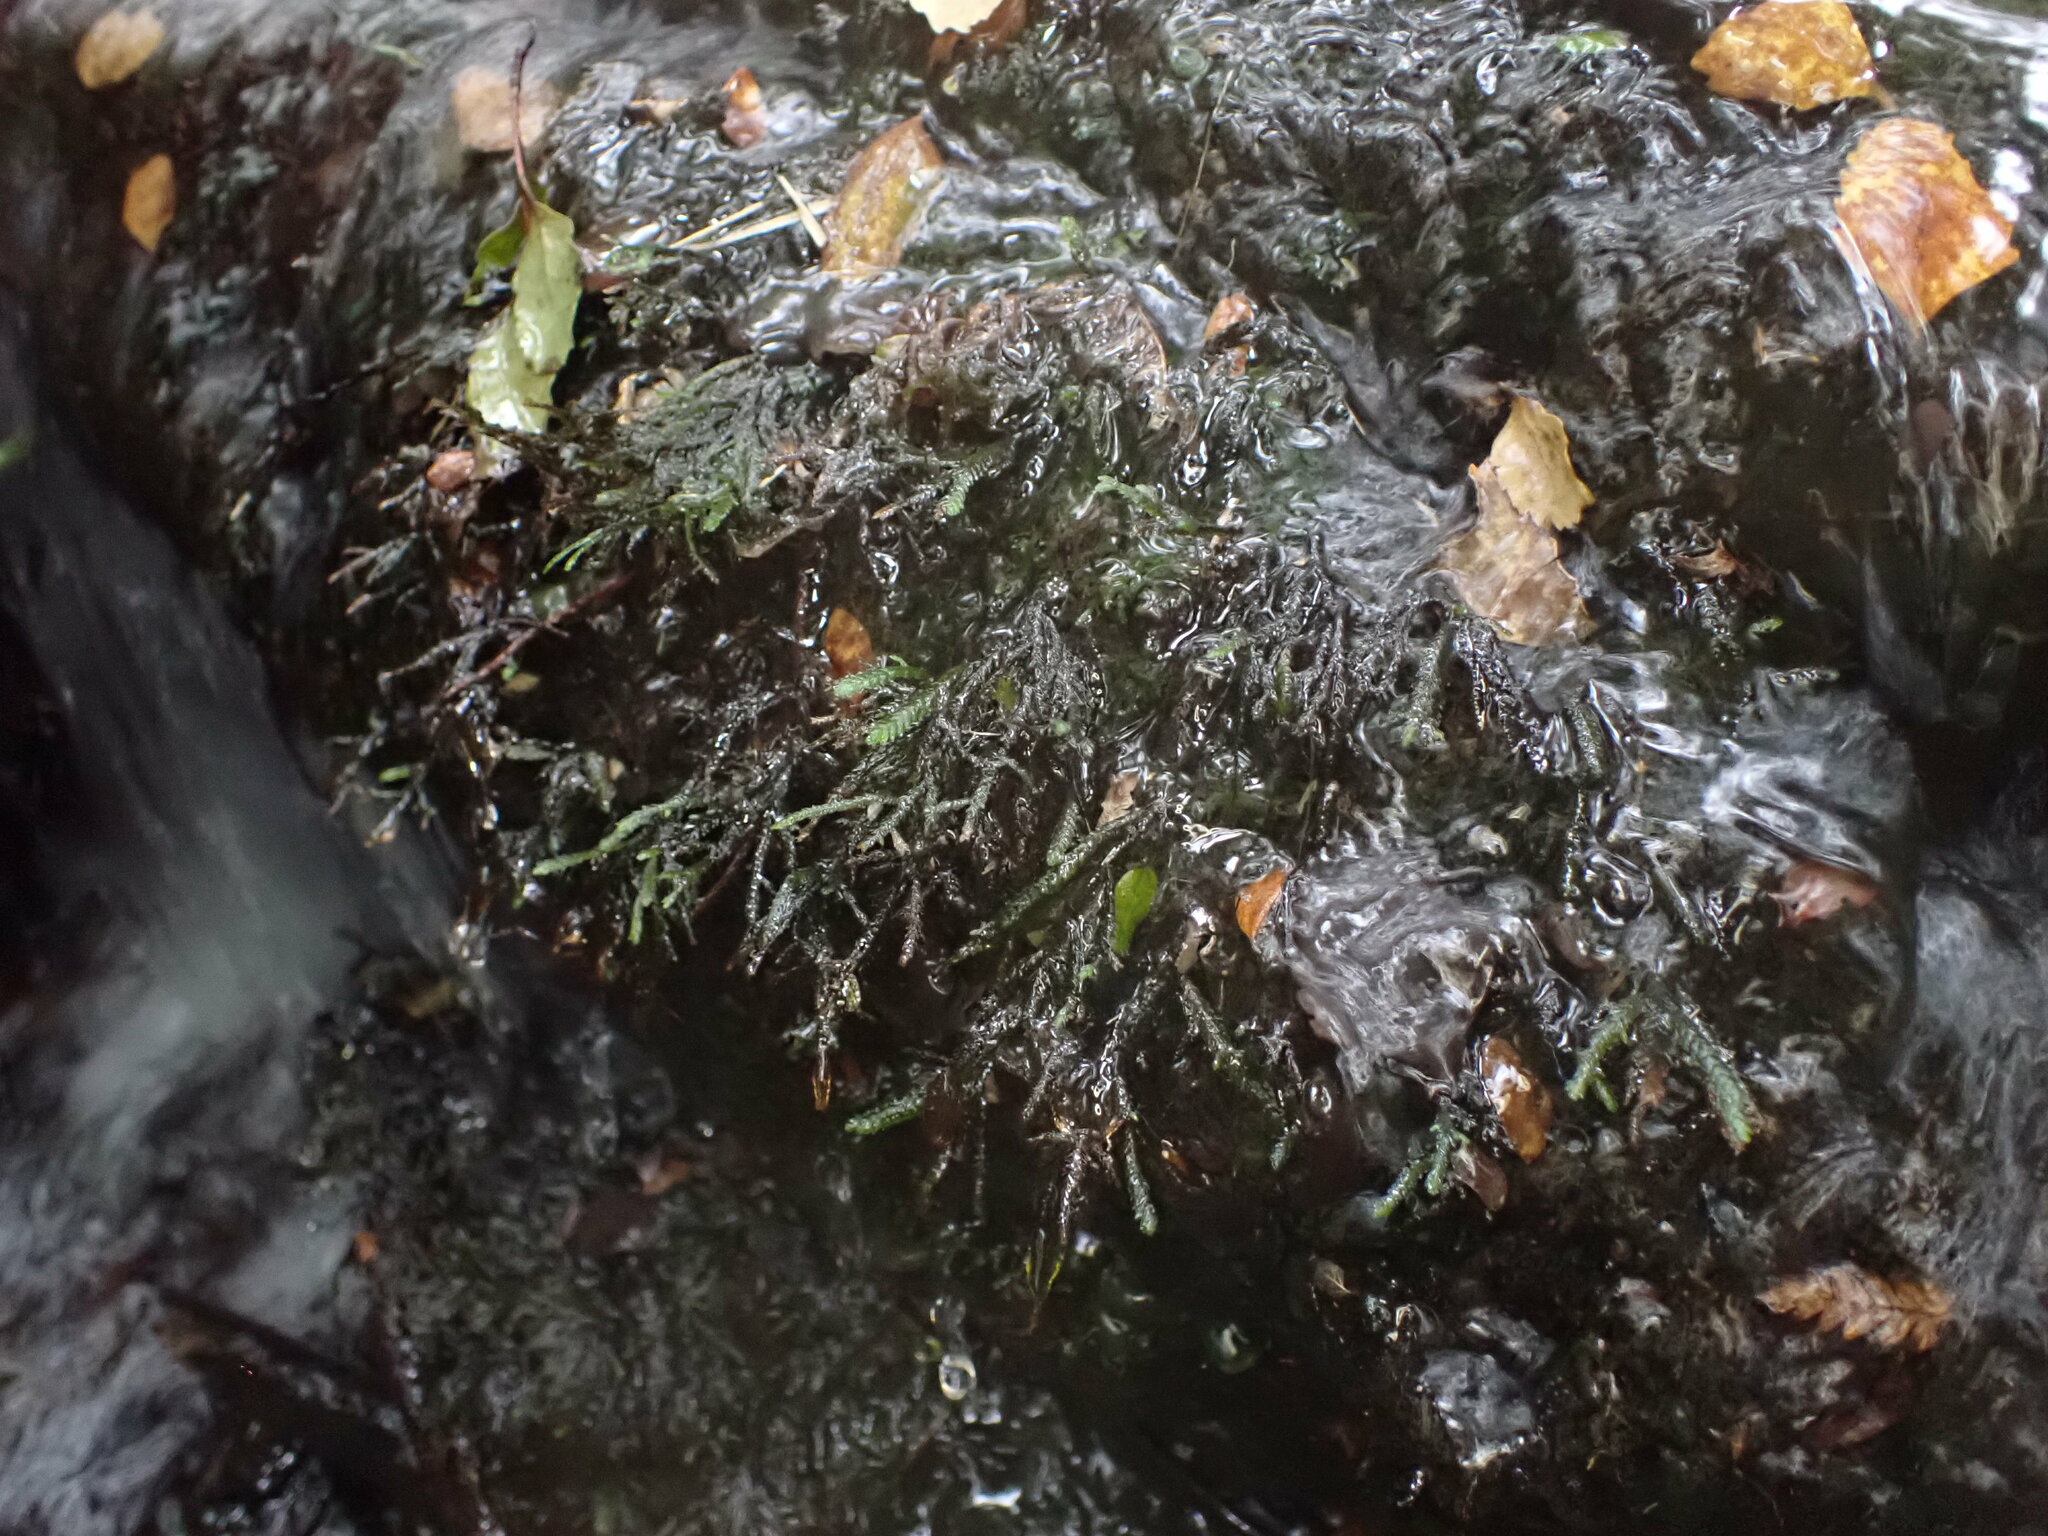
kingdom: Plantae
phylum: Bryophyta
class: Bryopsida
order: Hypnales
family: Neckeraceae
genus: Austrothamnium
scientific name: Austrothamnium pandum
